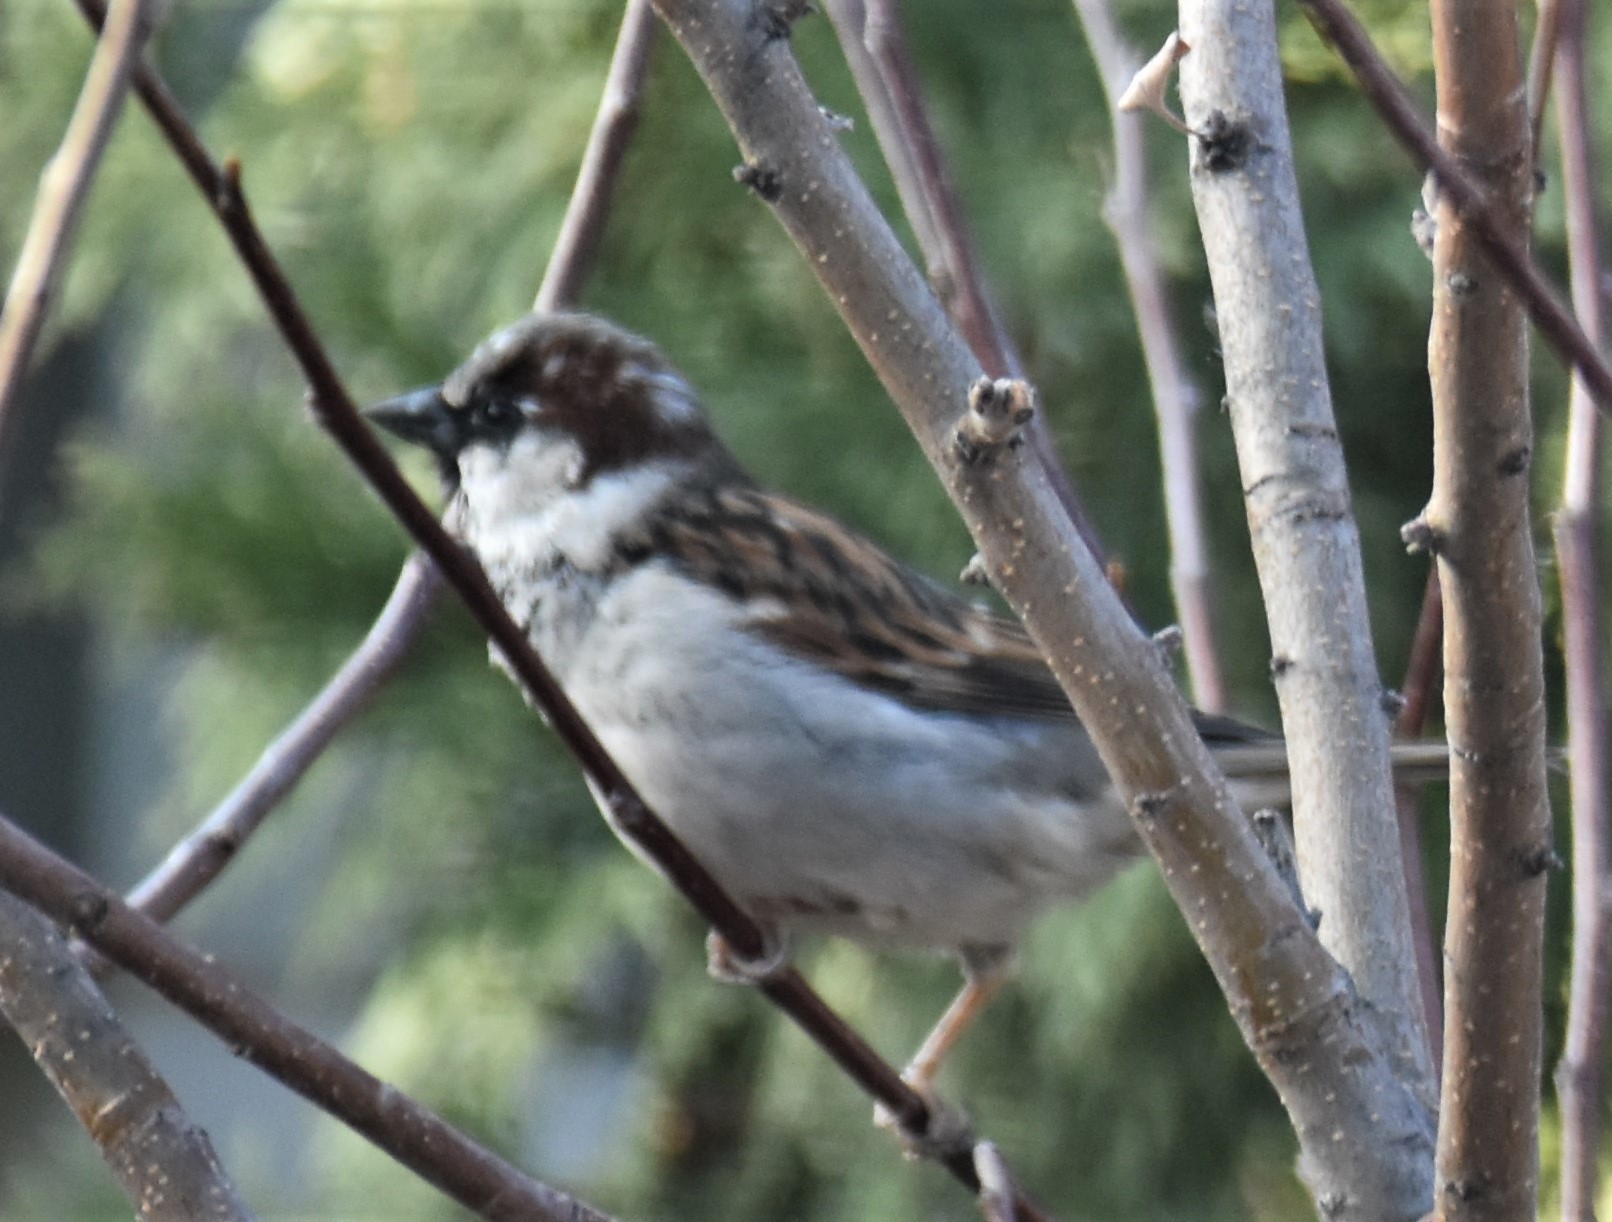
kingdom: Animalia
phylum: Chordata
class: Aves
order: Passeriformes
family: Passeridae
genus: Passer
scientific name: Passer domesticus
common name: House sparrow
